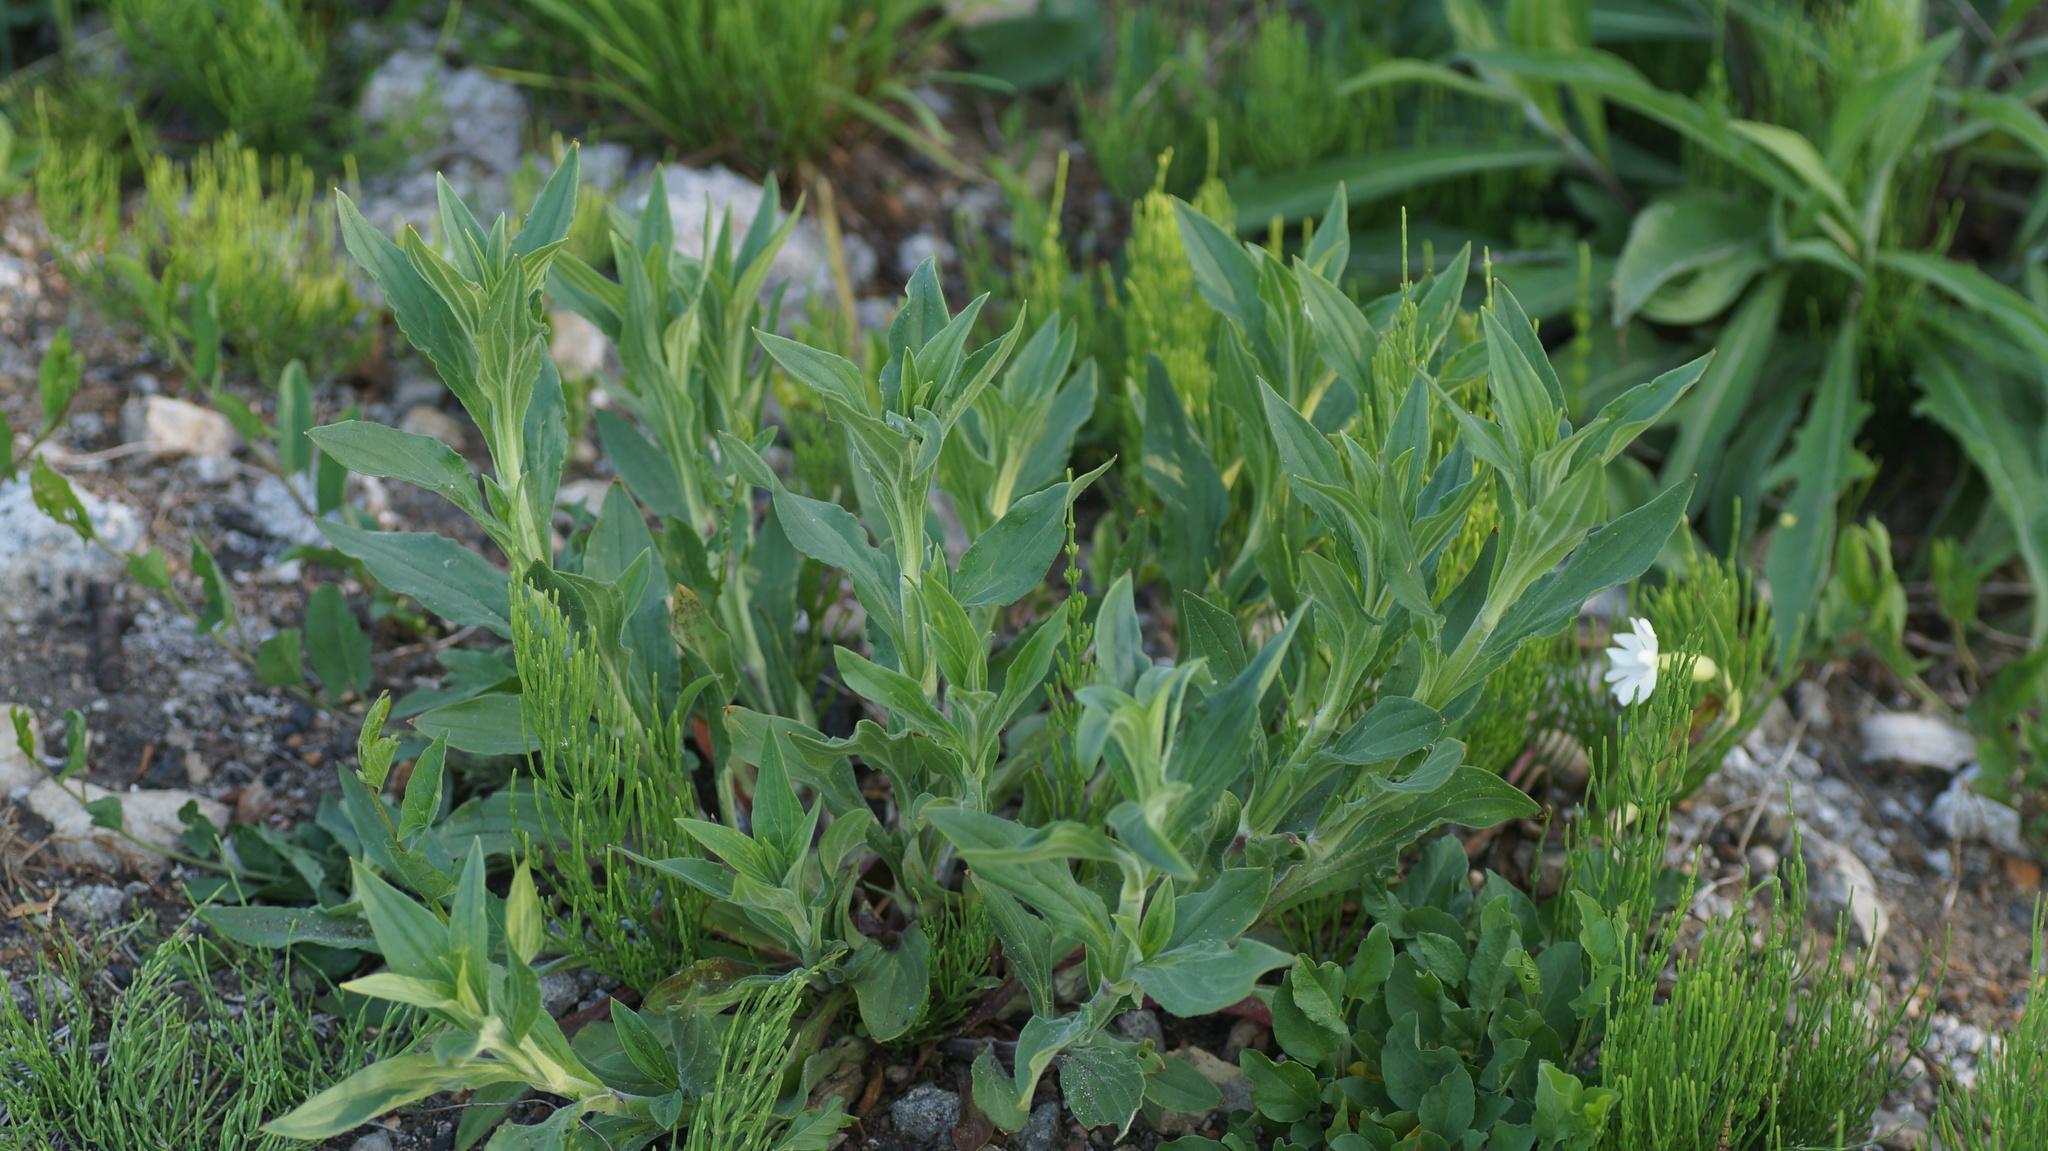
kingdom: Plantae
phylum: Tracheophyta
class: Magnoliopsida
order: Caryophyllales
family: Caryophyllaceae
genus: Silene
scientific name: Silene vulgaris
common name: Bladder campion
